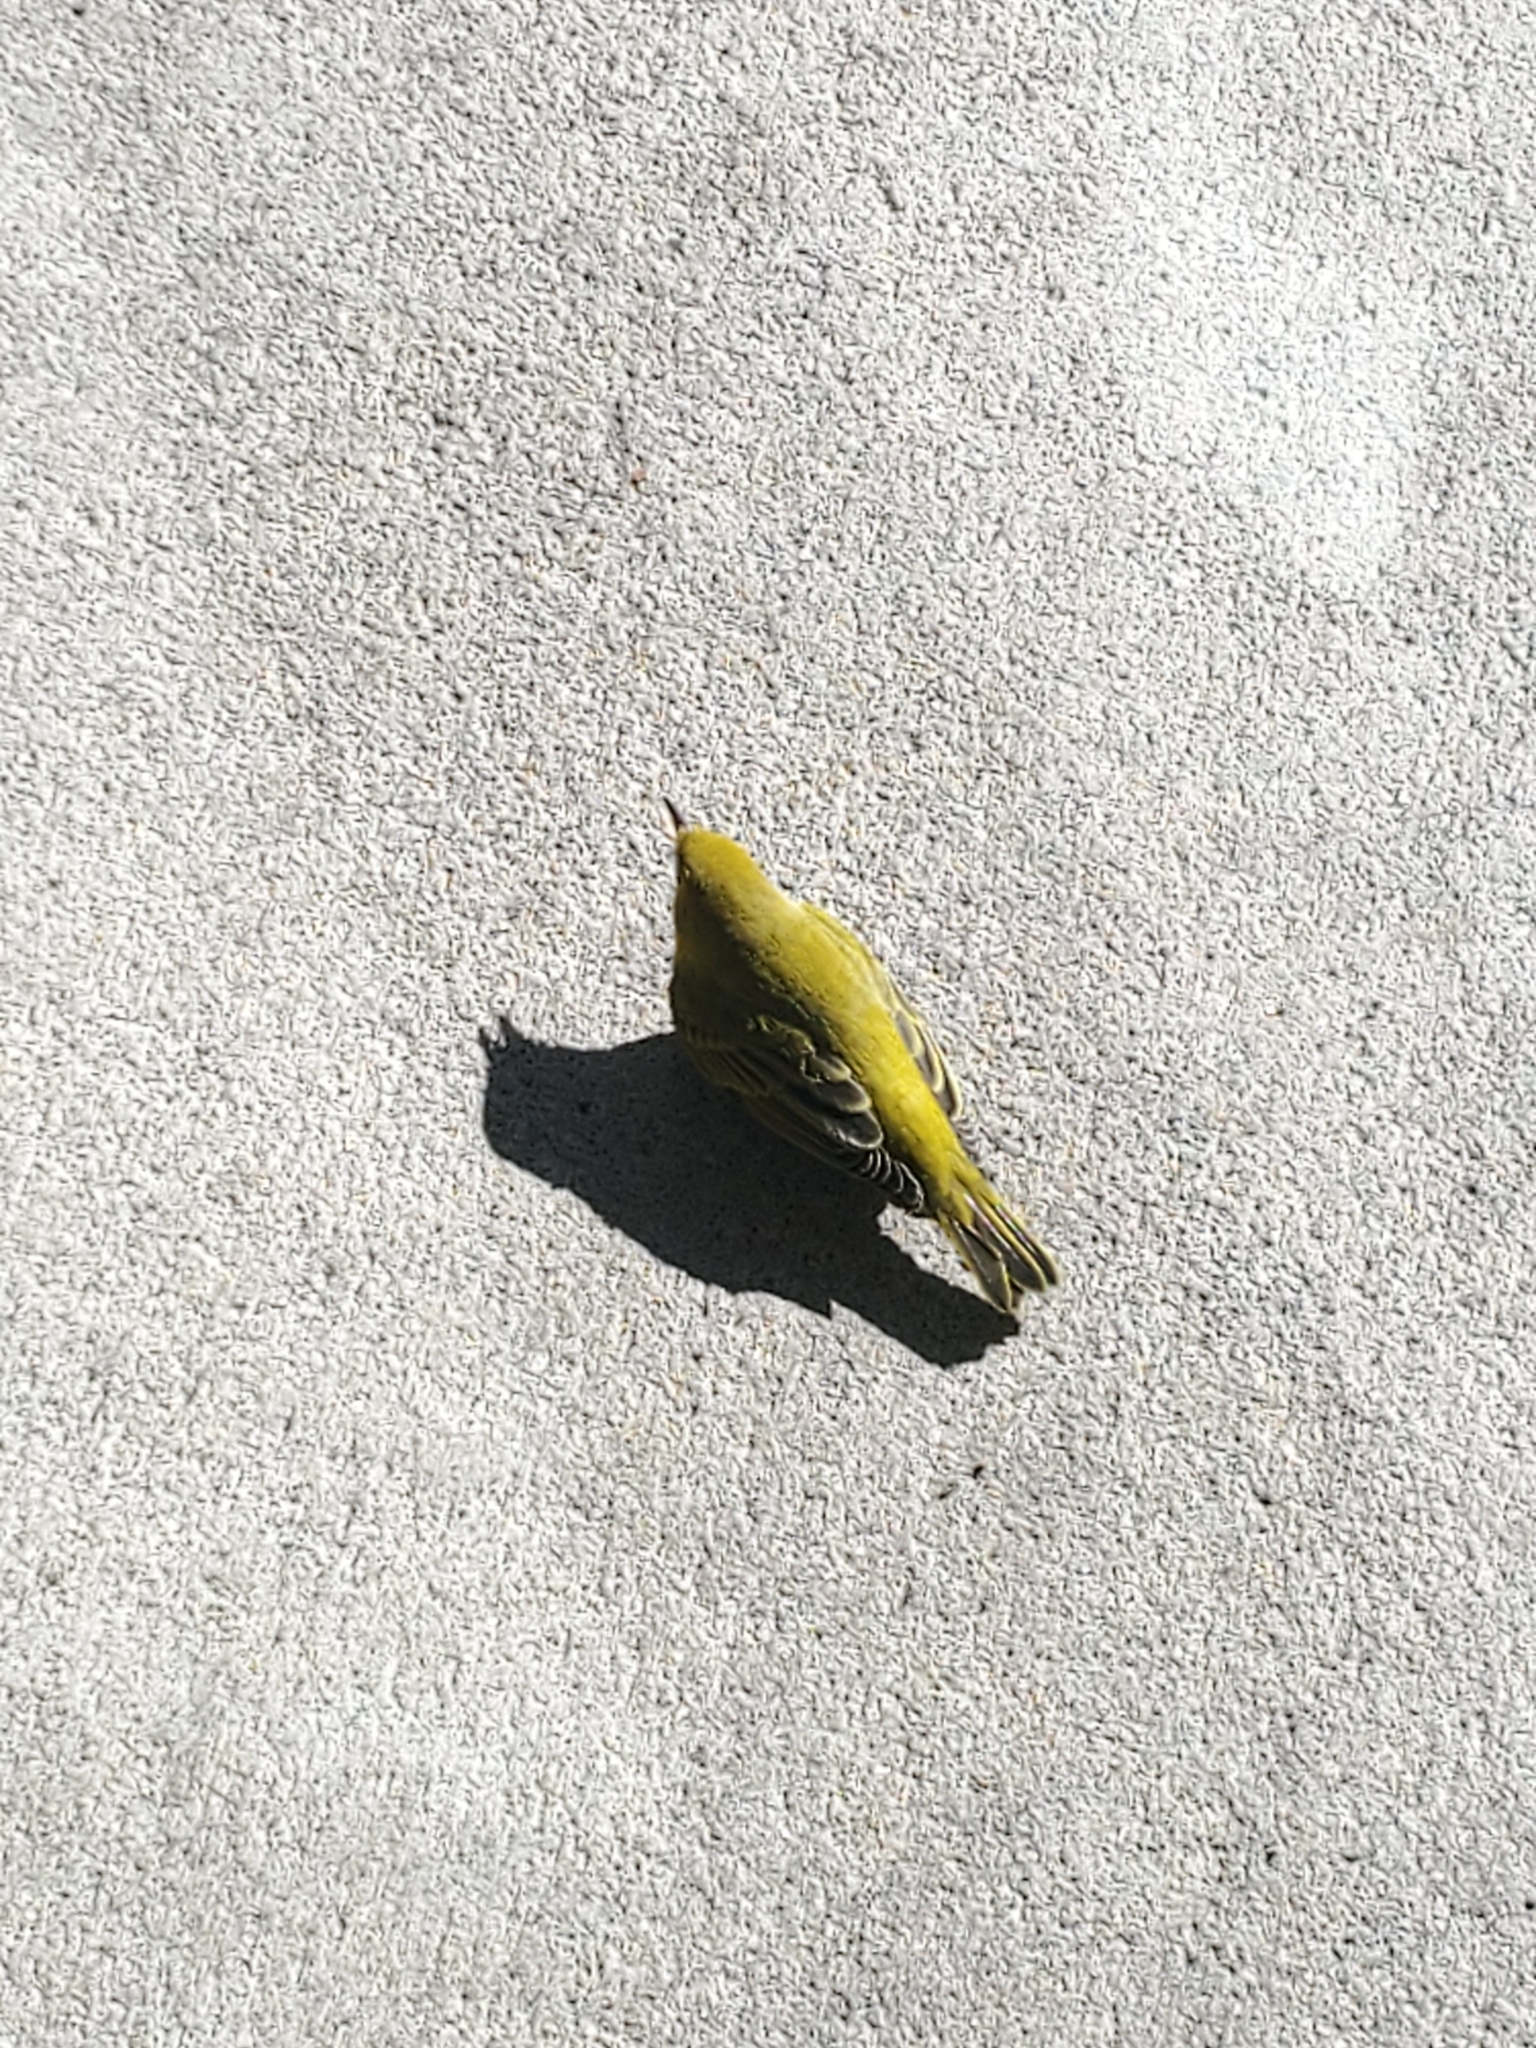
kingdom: Animalia
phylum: Chordata
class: Aves
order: Passeriformes
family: Parulidae
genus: Setophaga
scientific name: Setophaga petechia
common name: Yellow warbler
